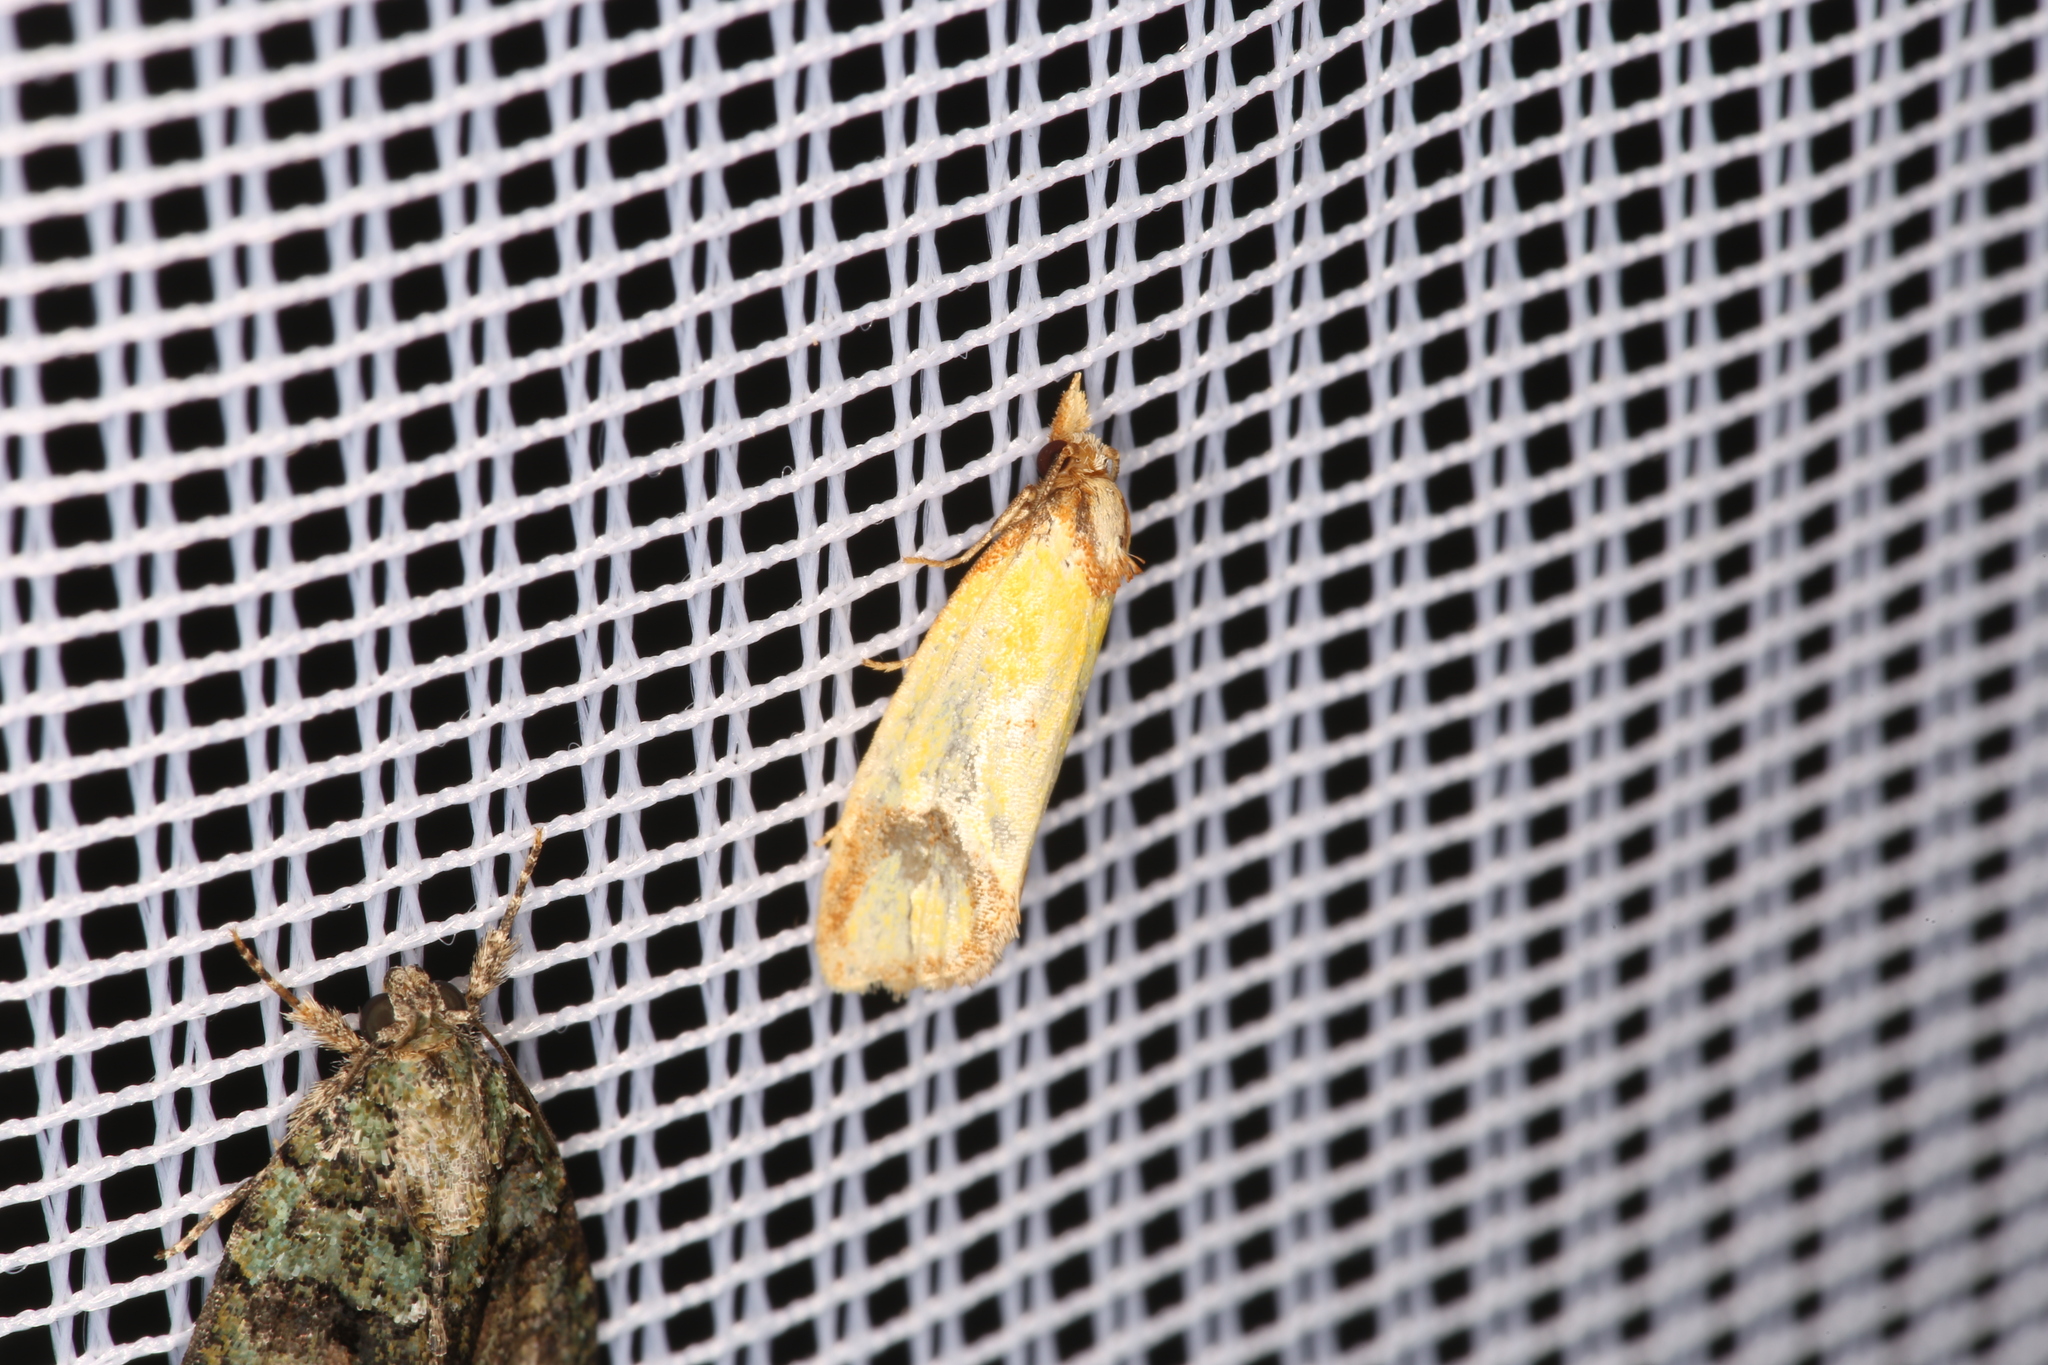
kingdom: Animalia
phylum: Arthropoda
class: Insecta
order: Lepidoptera
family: Tortricidae
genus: Agapeta
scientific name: Agapeta hamana
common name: Common yellow conch
